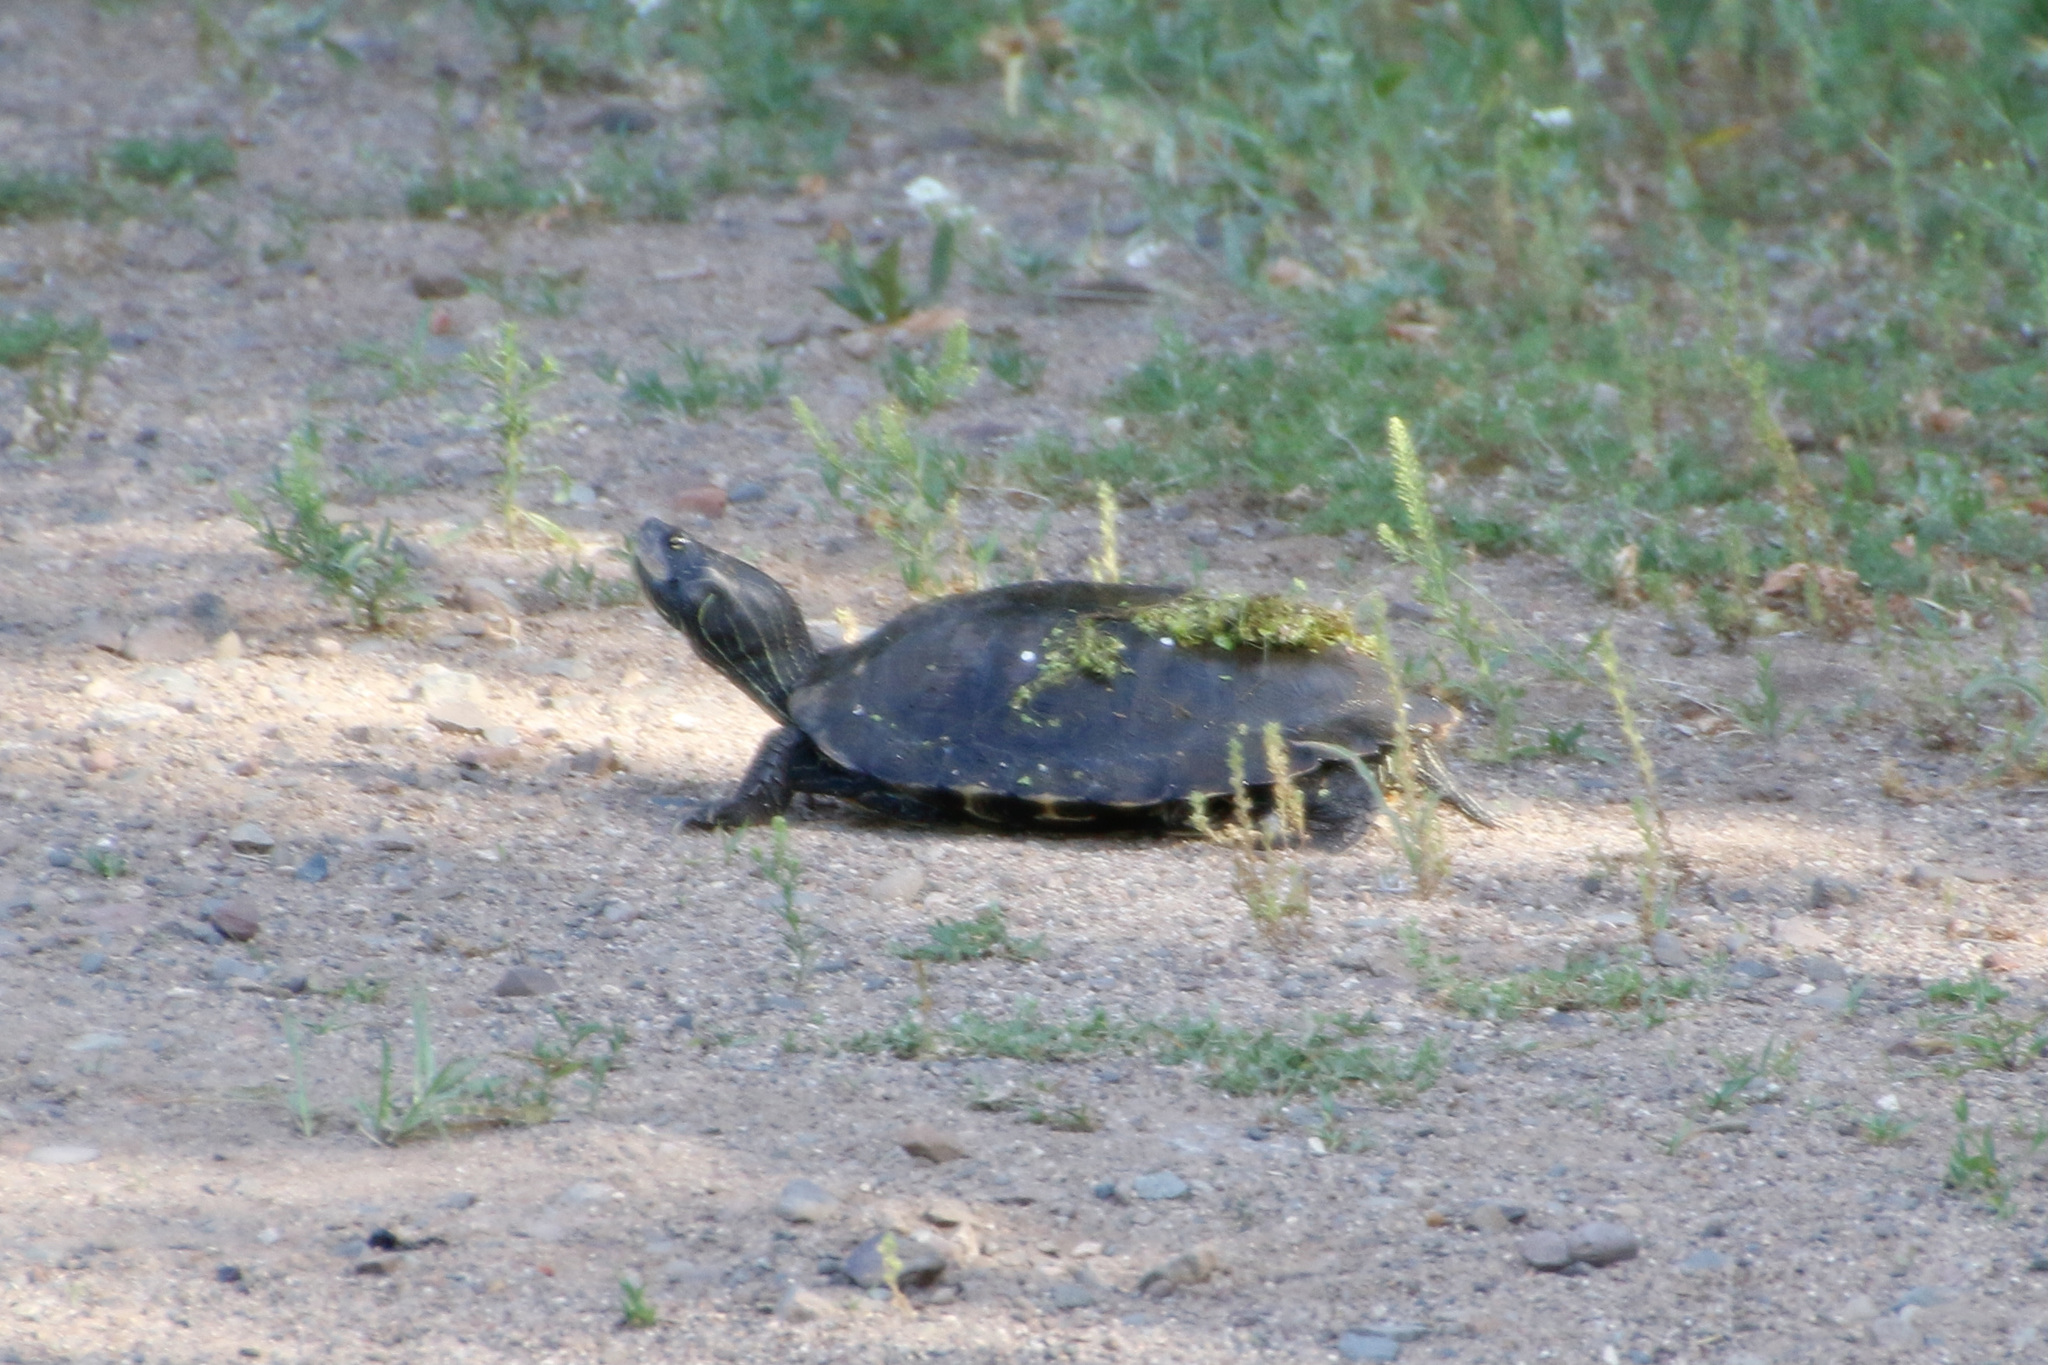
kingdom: Animalia
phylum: Chordata
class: Testudines
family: Emydidae
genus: Graptemys
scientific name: Graptemys geographica
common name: Common map turtle
